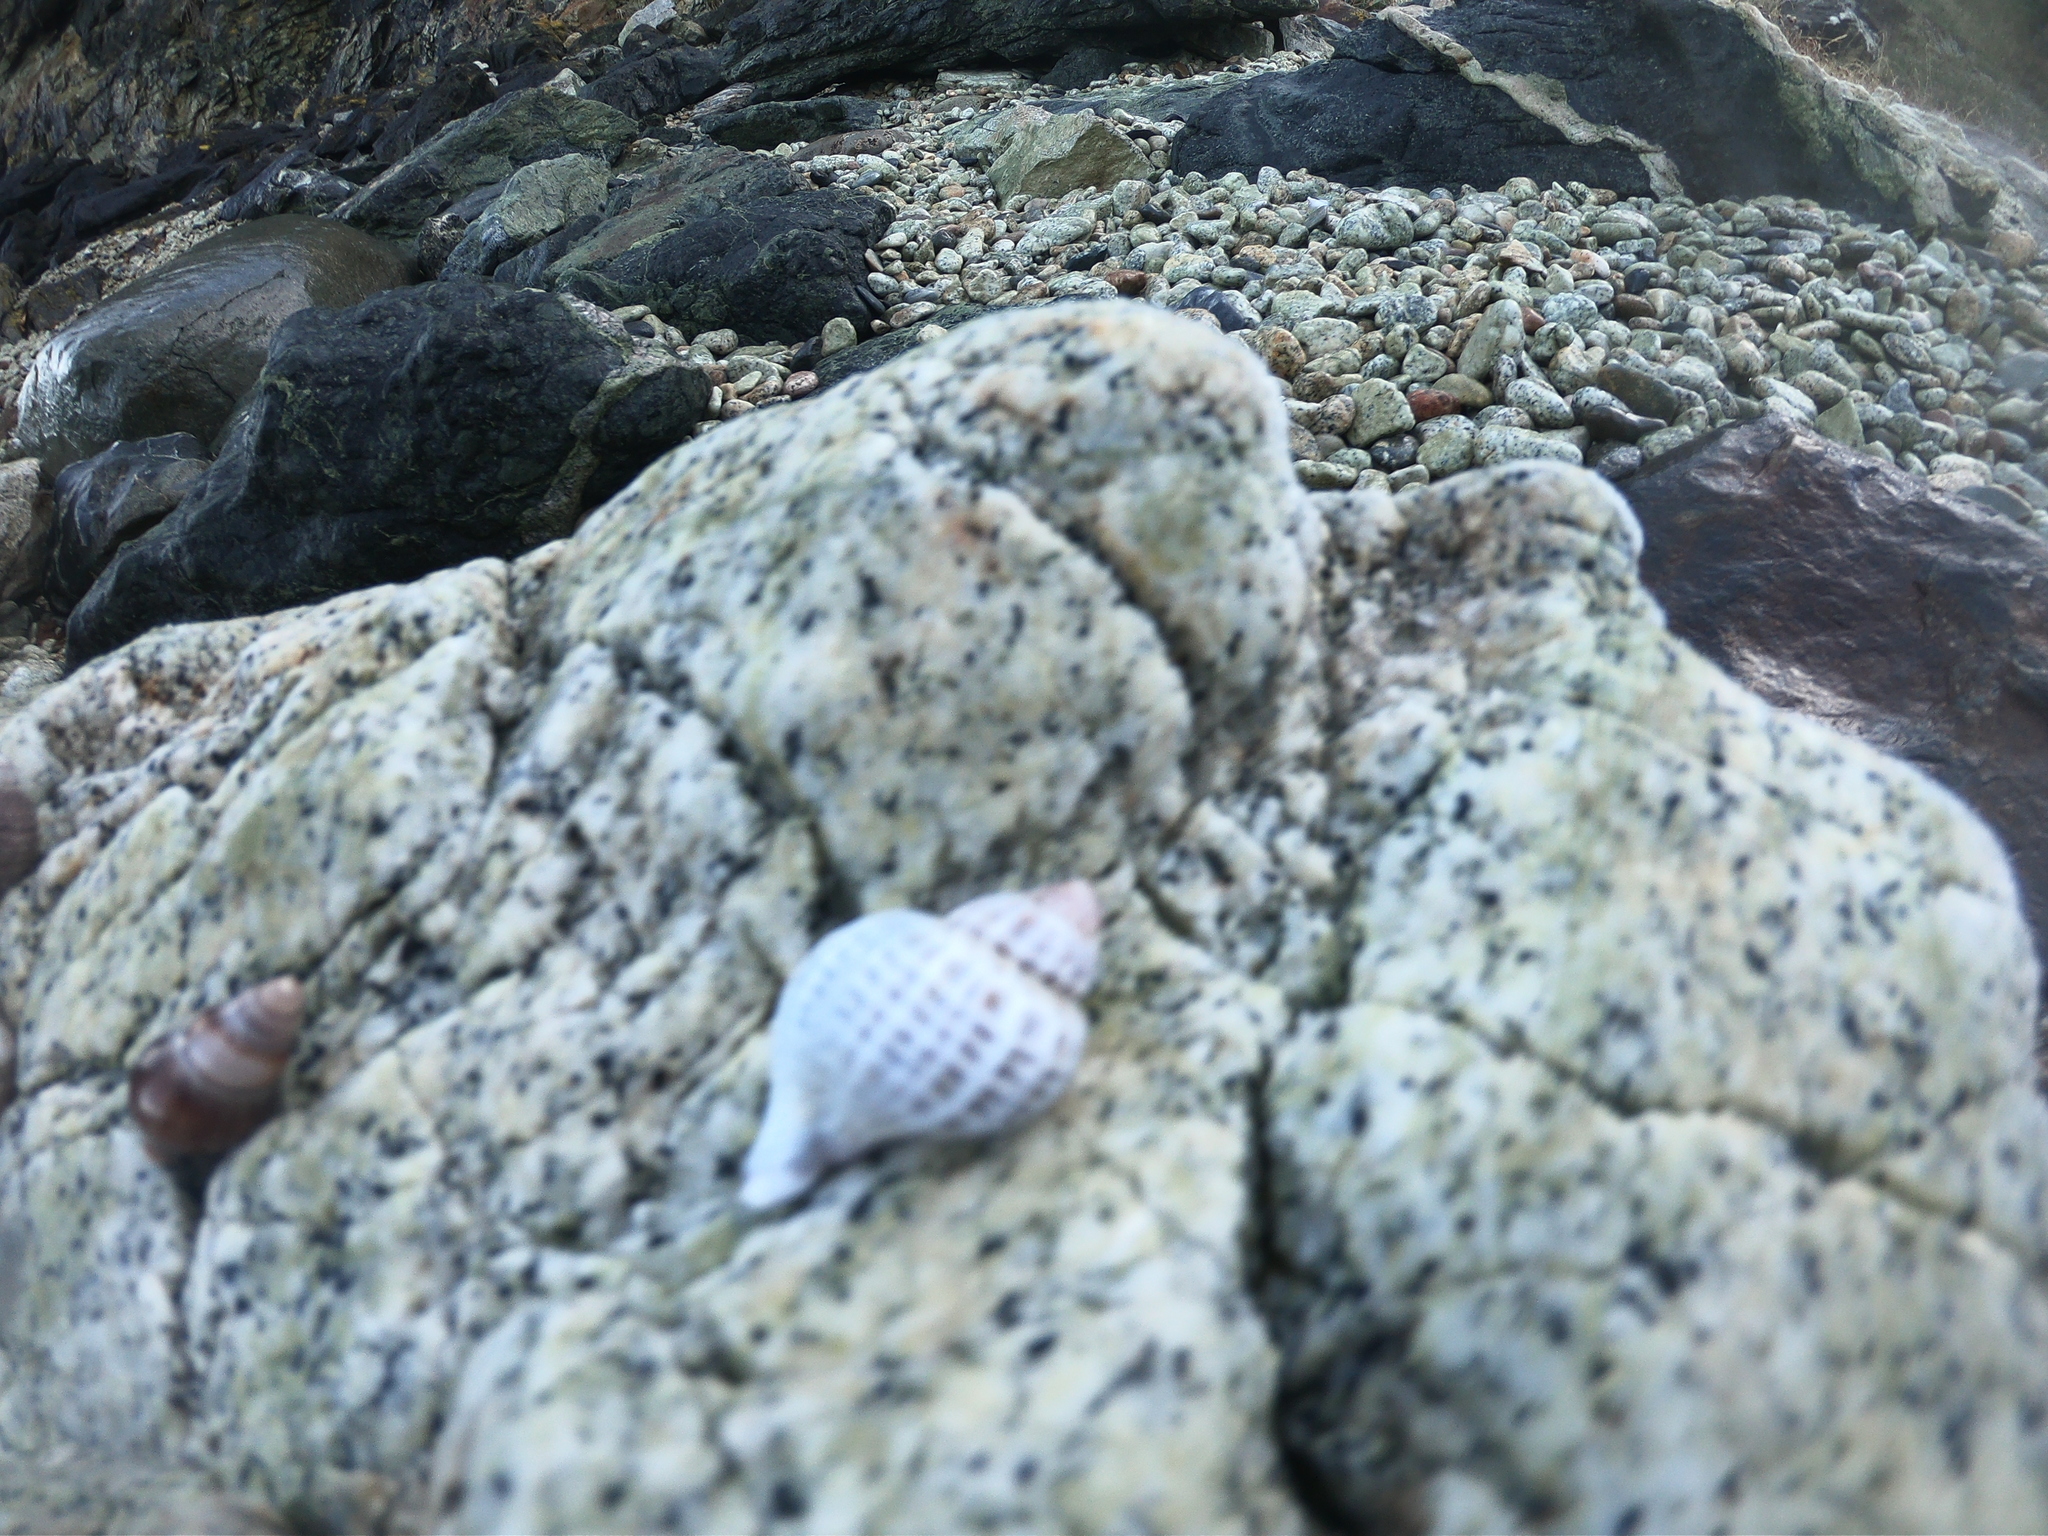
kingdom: Animalia
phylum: Mollusca
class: Gastropoda
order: Neogastropoda
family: Muricidae
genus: Trophon
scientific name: Trophon geversianus
